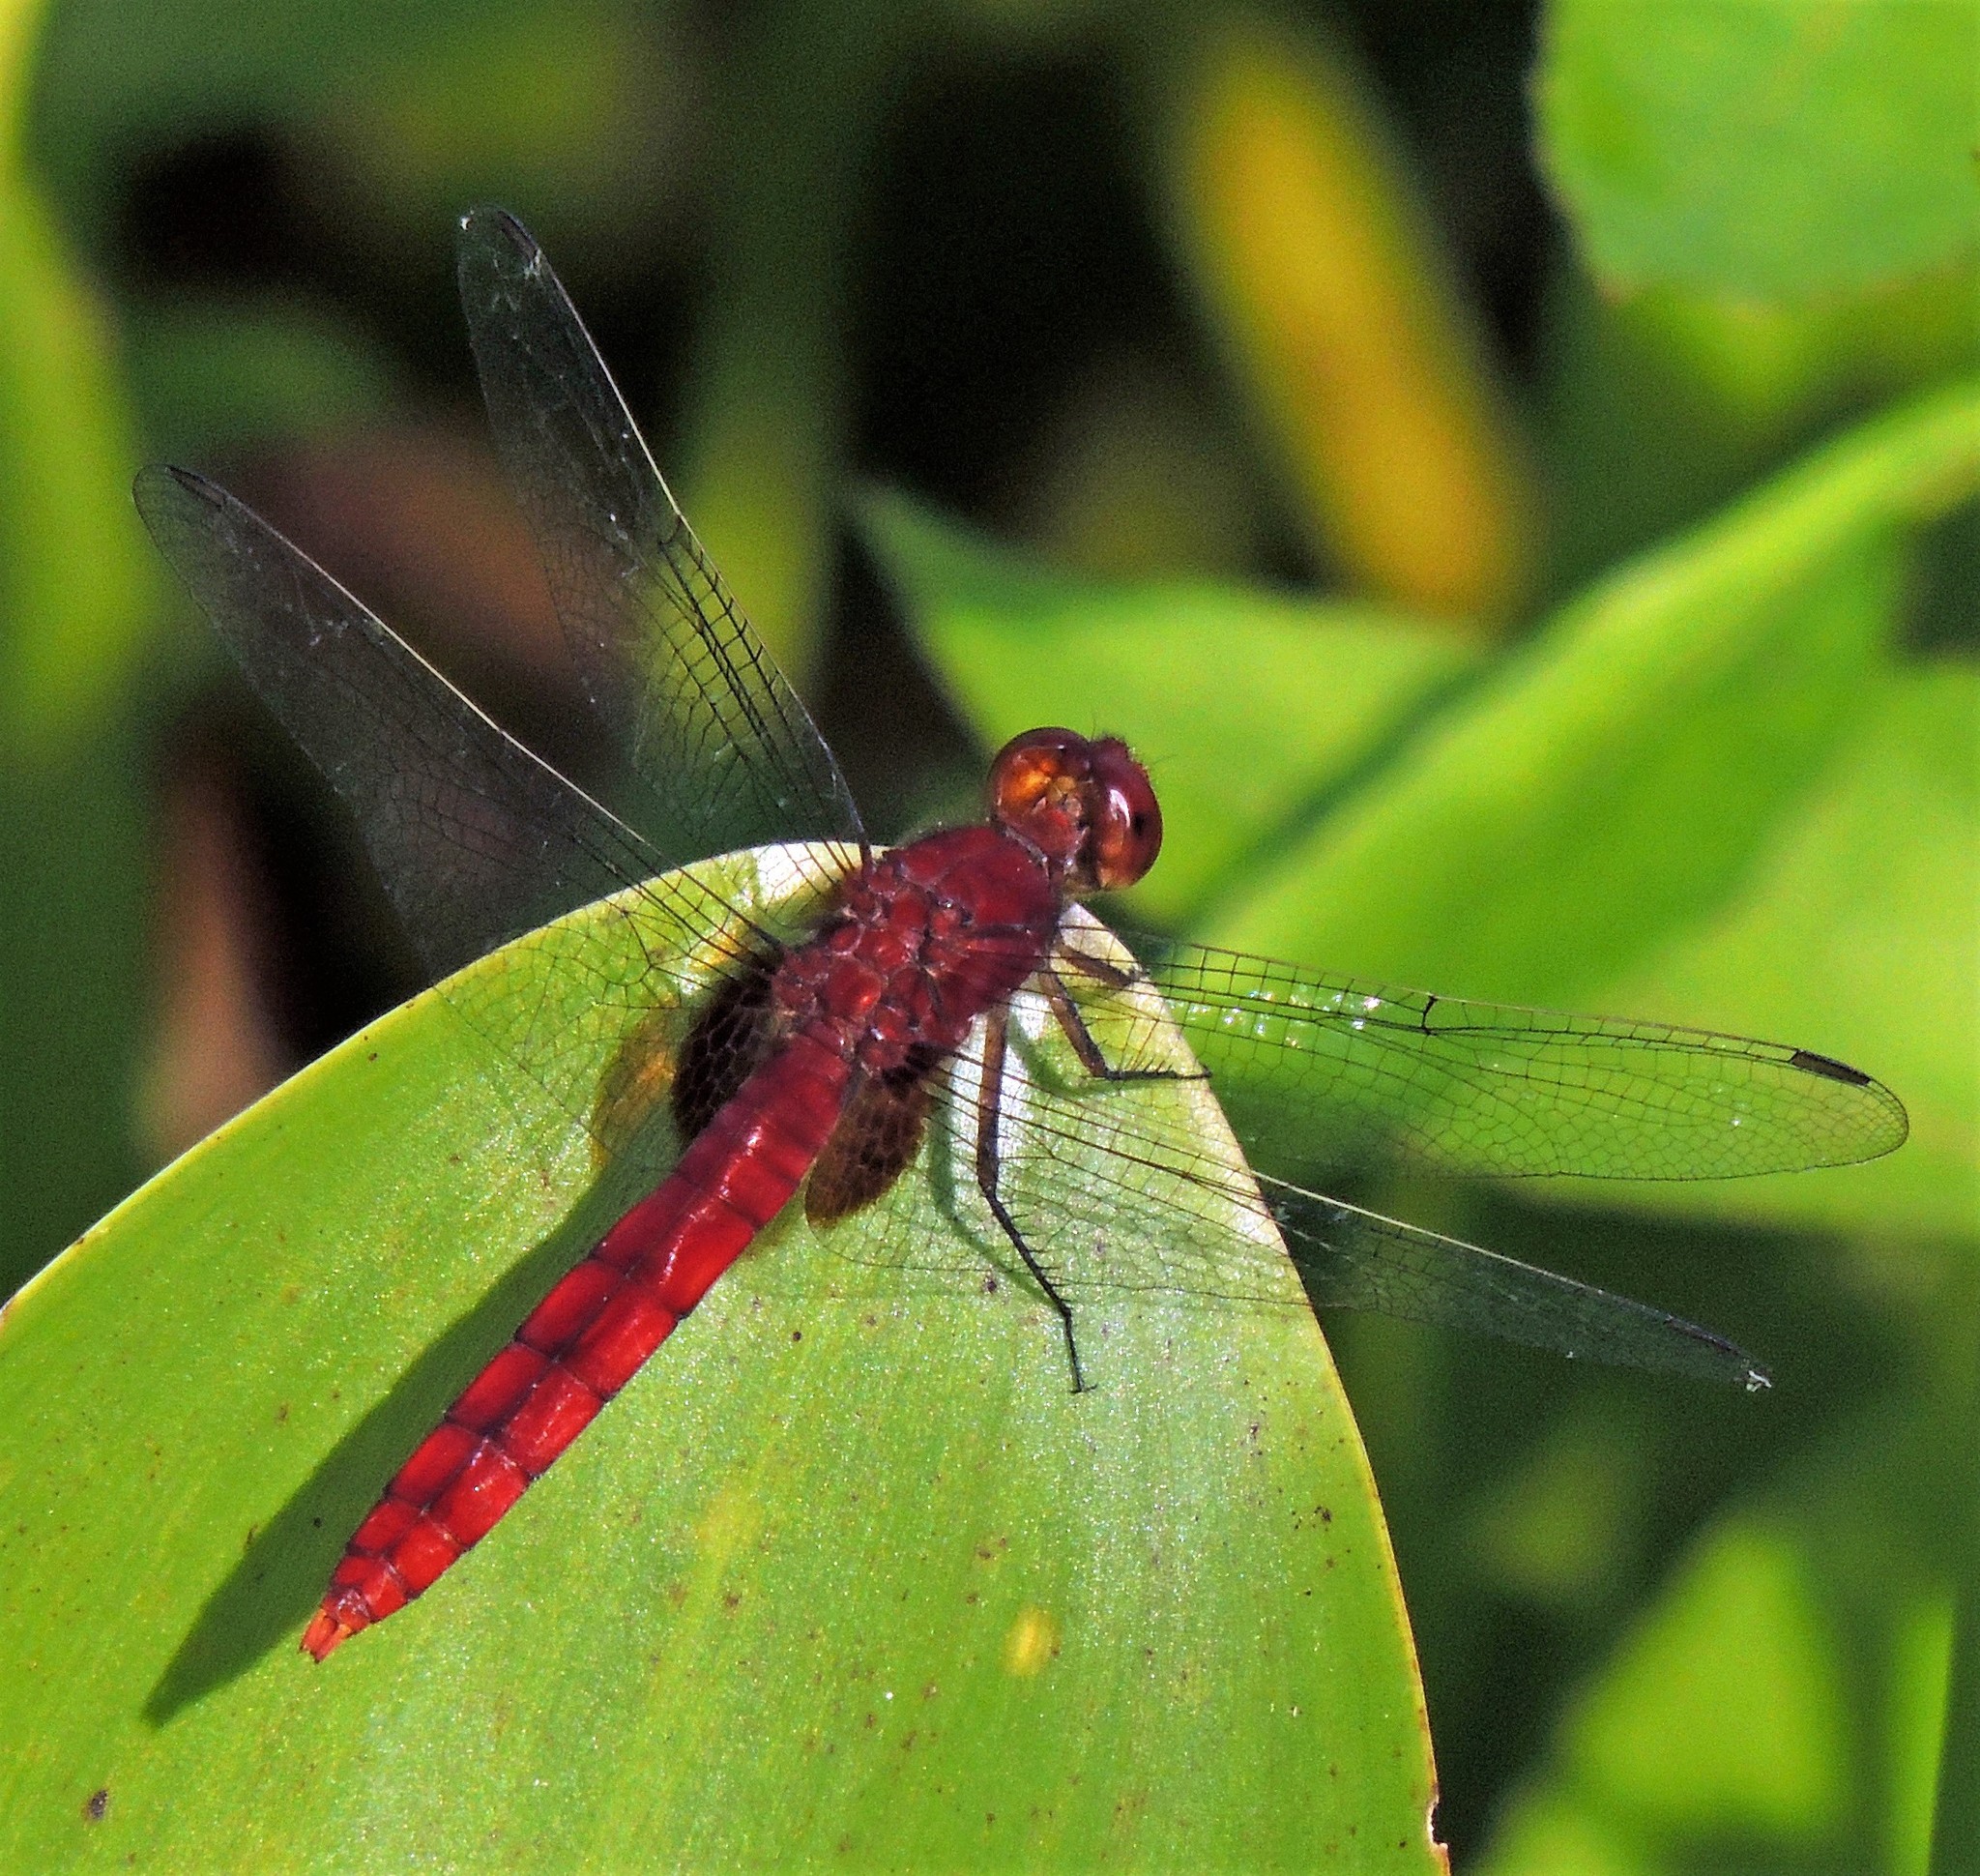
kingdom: Animalia
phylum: Arthropoda
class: Insecta
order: Odonata
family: Libellulidae
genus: Erythemis
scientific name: Erythemis mithroides
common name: Claret pondhawk
